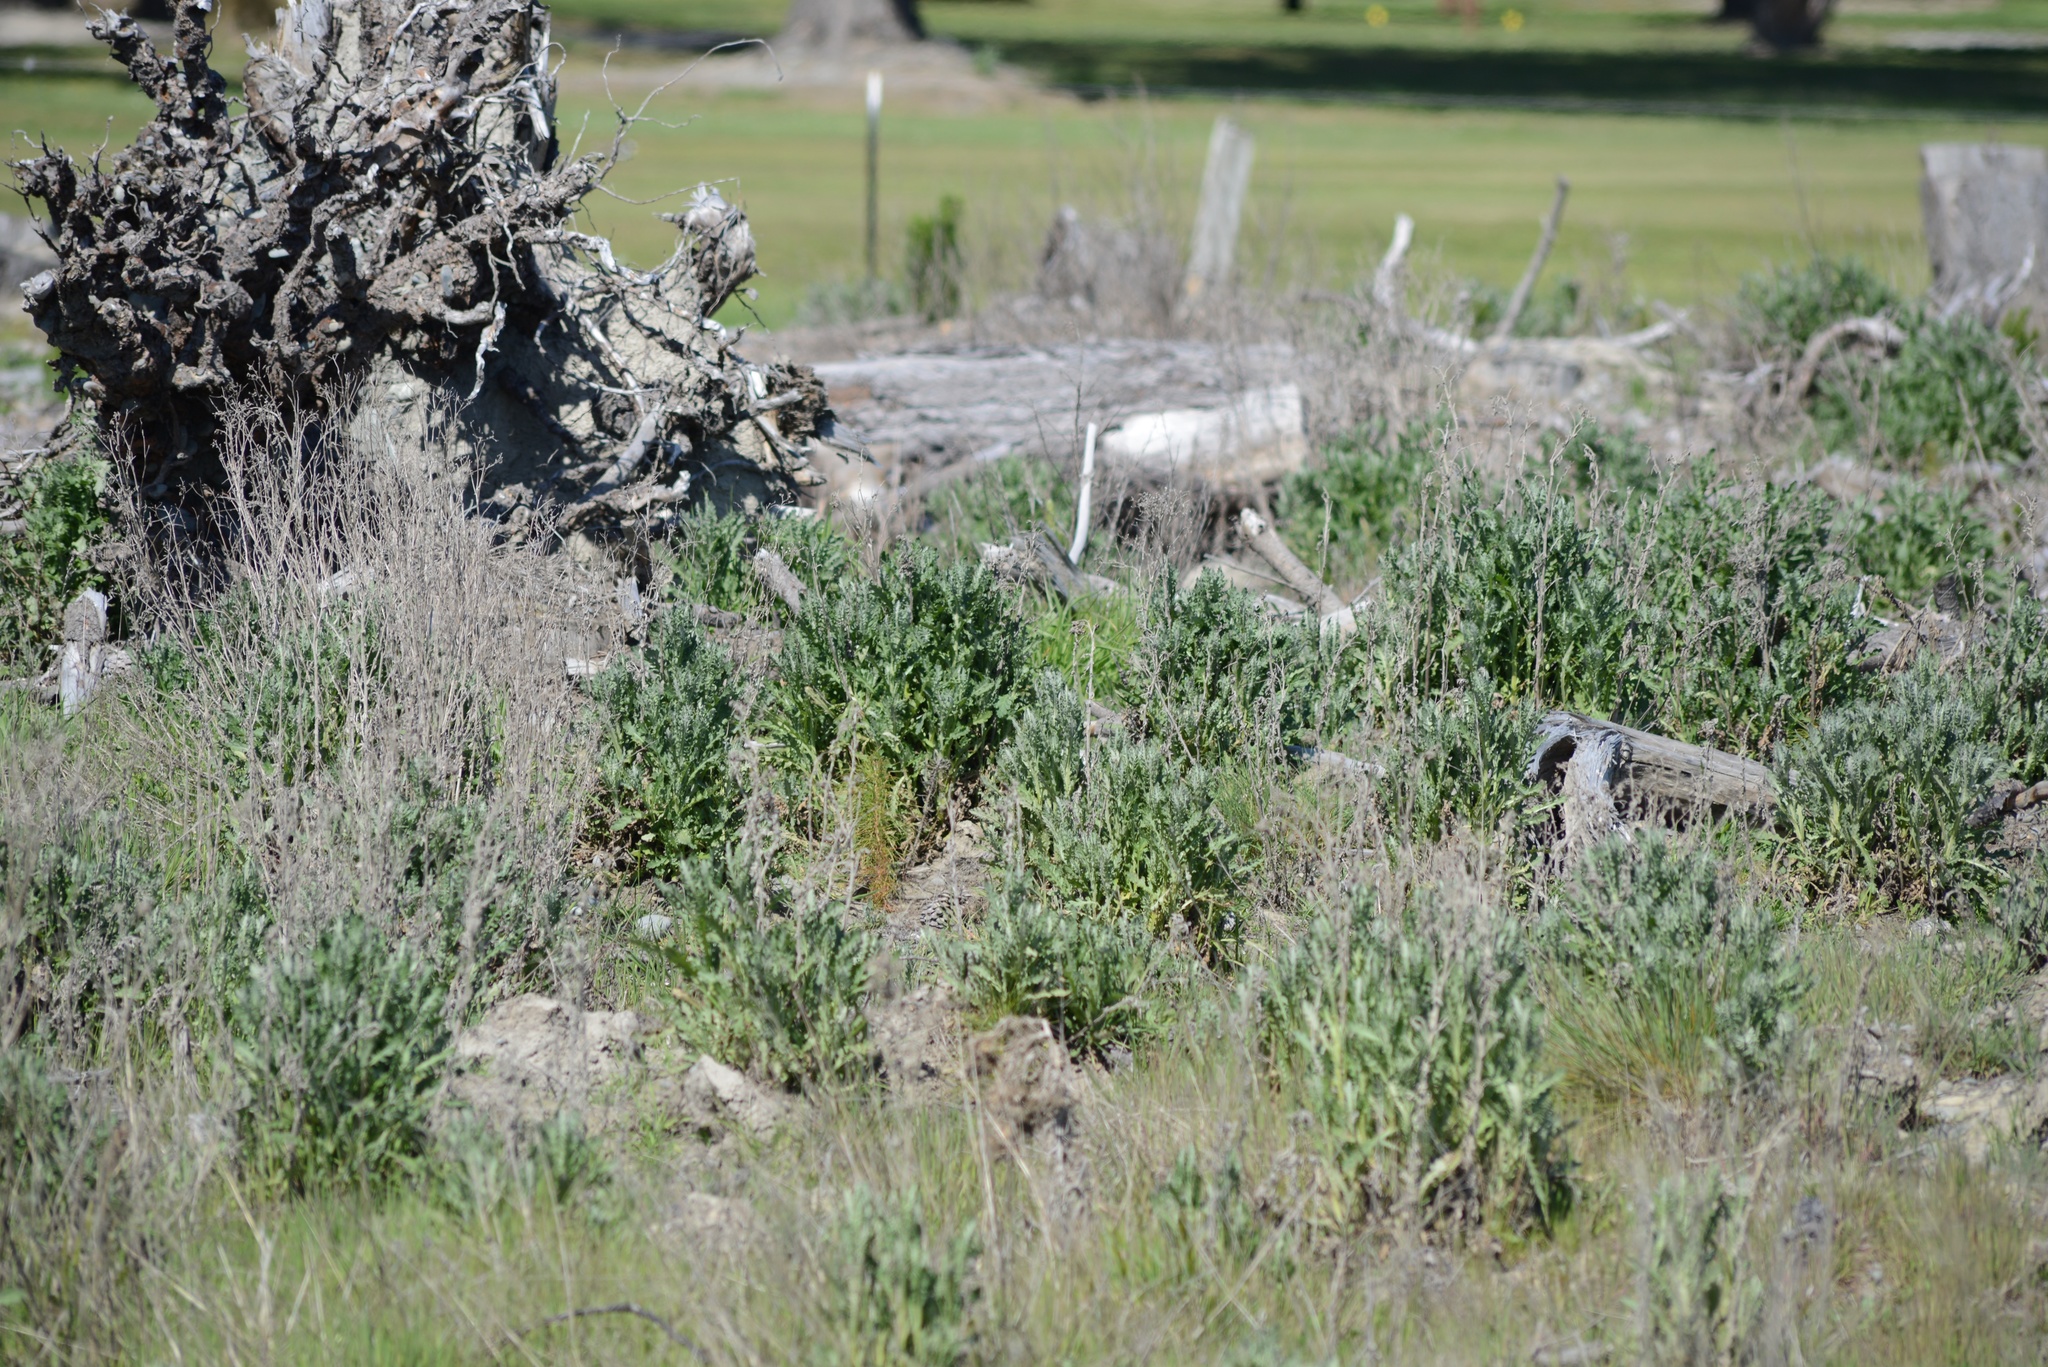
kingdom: Plantae
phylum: Tracheophyta
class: Magnoliopsida
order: Asterales
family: Asteraceae
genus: Senecio
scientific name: Senecio glomeratus
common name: Cutleaf burnweed
